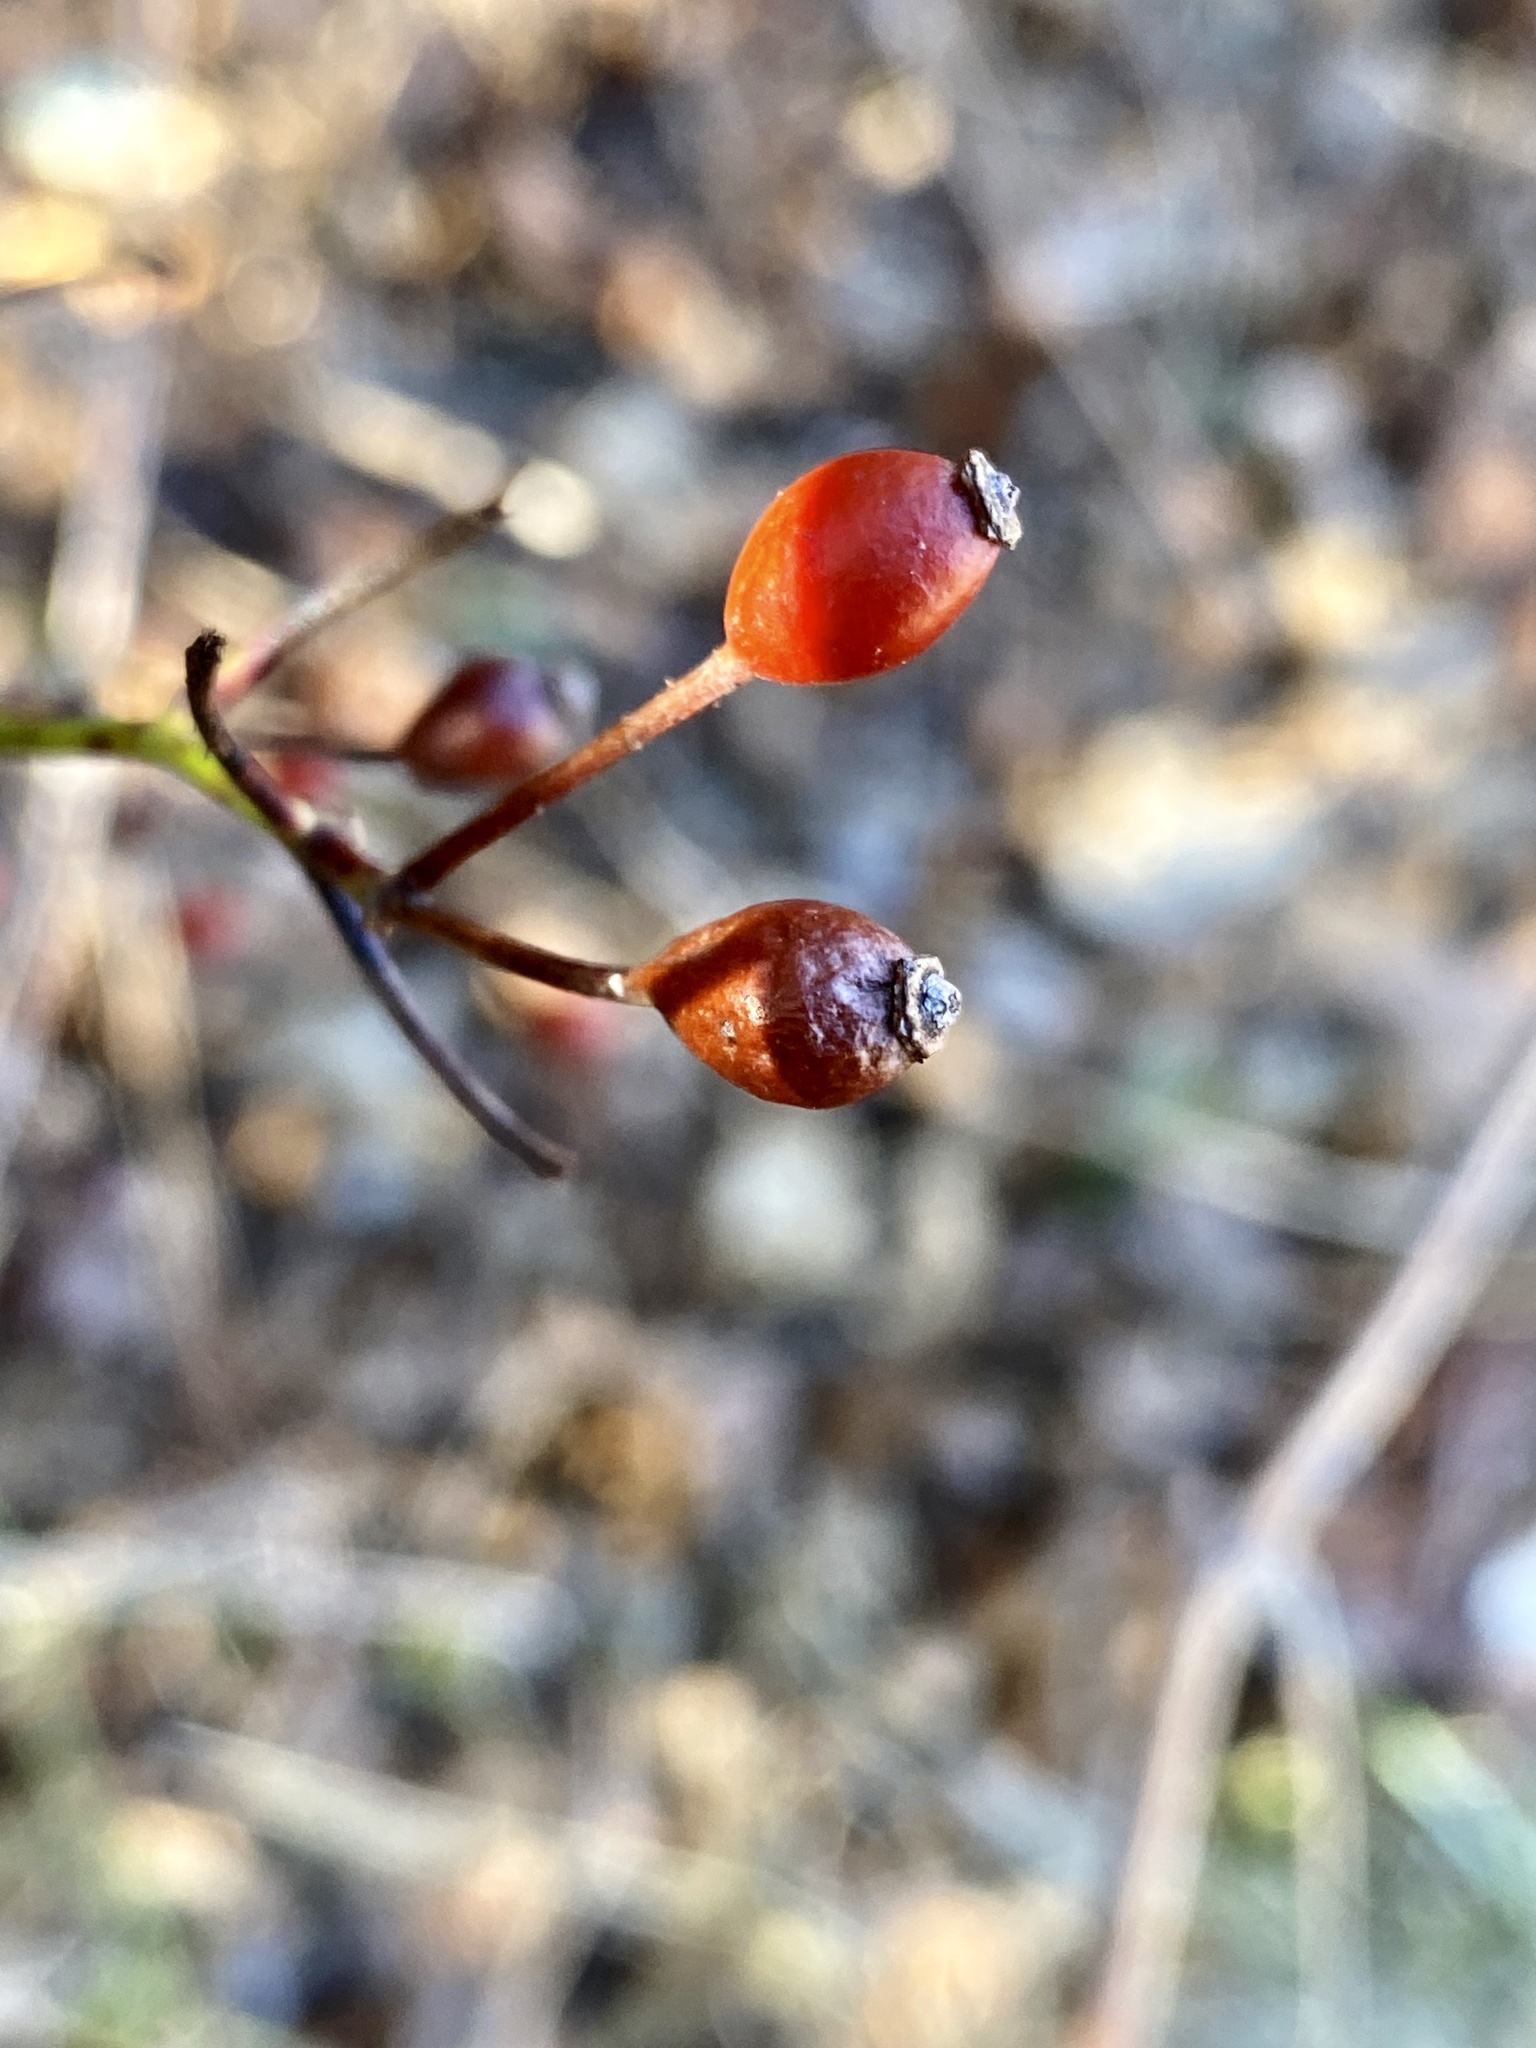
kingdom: Plantae
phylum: Tracheophyta
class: Magnoliopsida
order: Rosales
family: Rosaceae
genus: Rosa
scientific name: Rosa multiflora
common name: Multiflora rose
